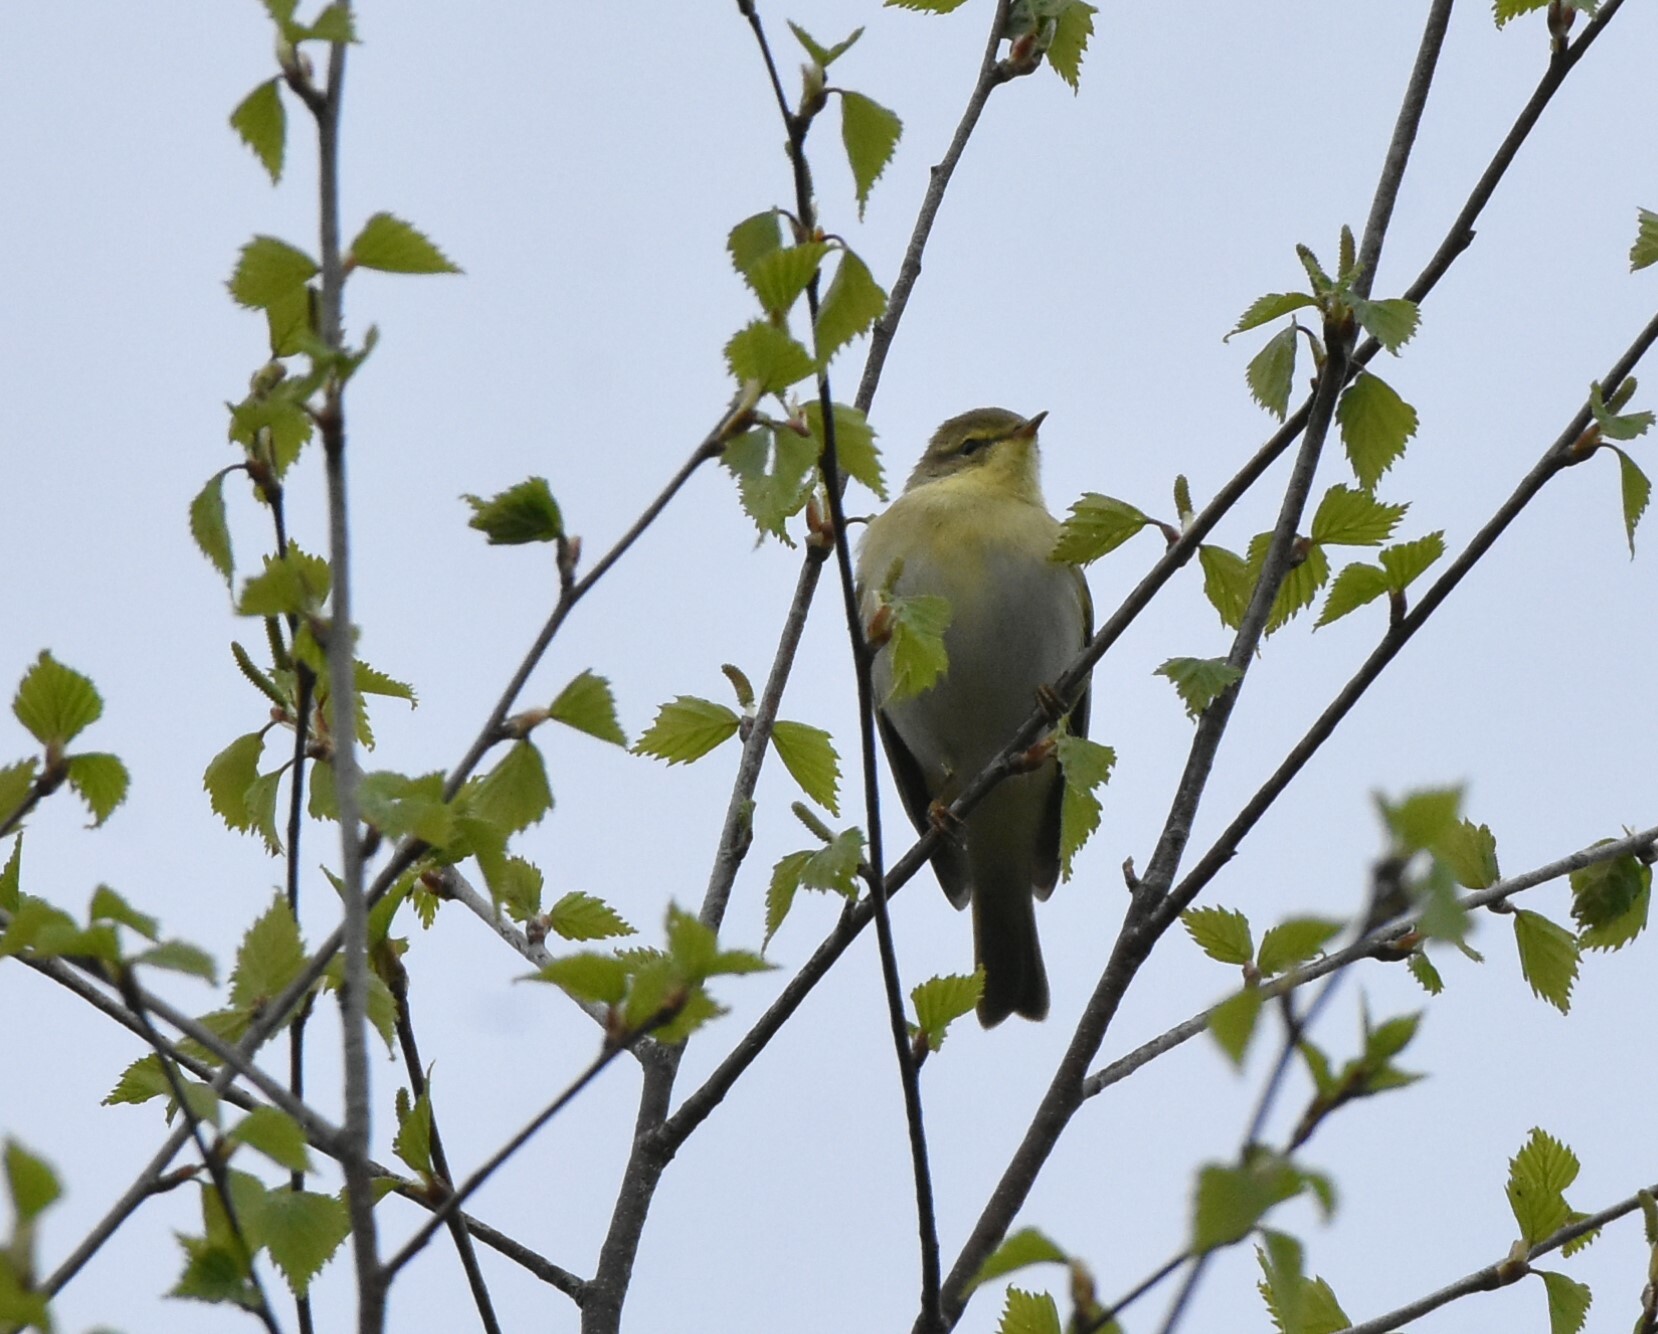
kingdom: Animalia
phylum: Chordata
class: Aves
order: Passeriformes
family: Phylloscopidae
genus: Phylloscopus
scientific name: Phylloscopus sibillatrix
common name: Wood warbler
